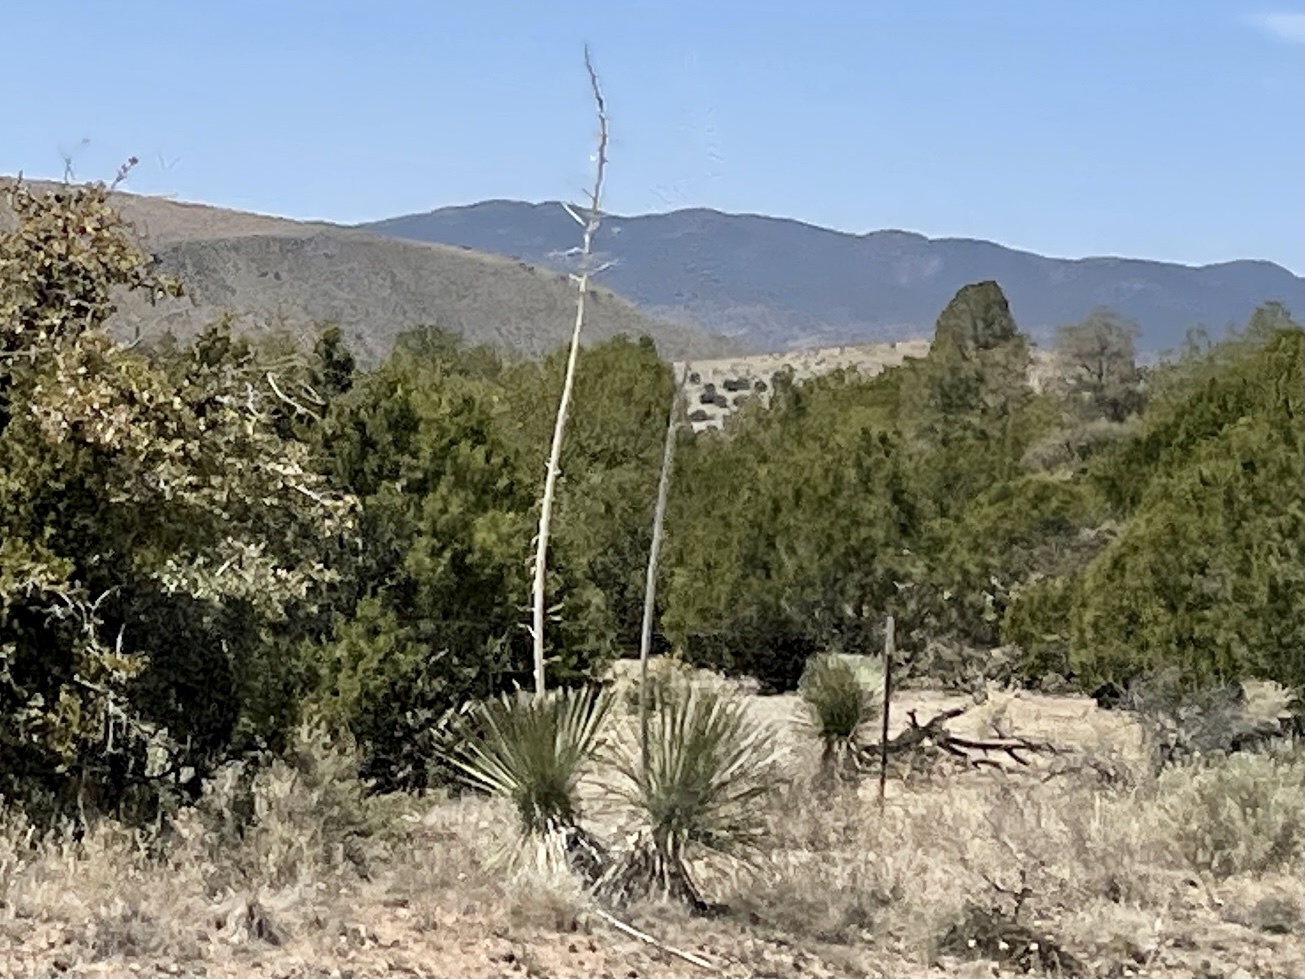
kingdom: Plantae
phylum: Tracheophyta
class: Liliopsida
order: Asparagales
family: Asparagaceae
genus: Yucca
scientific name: Yucca elata
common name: Palmella
